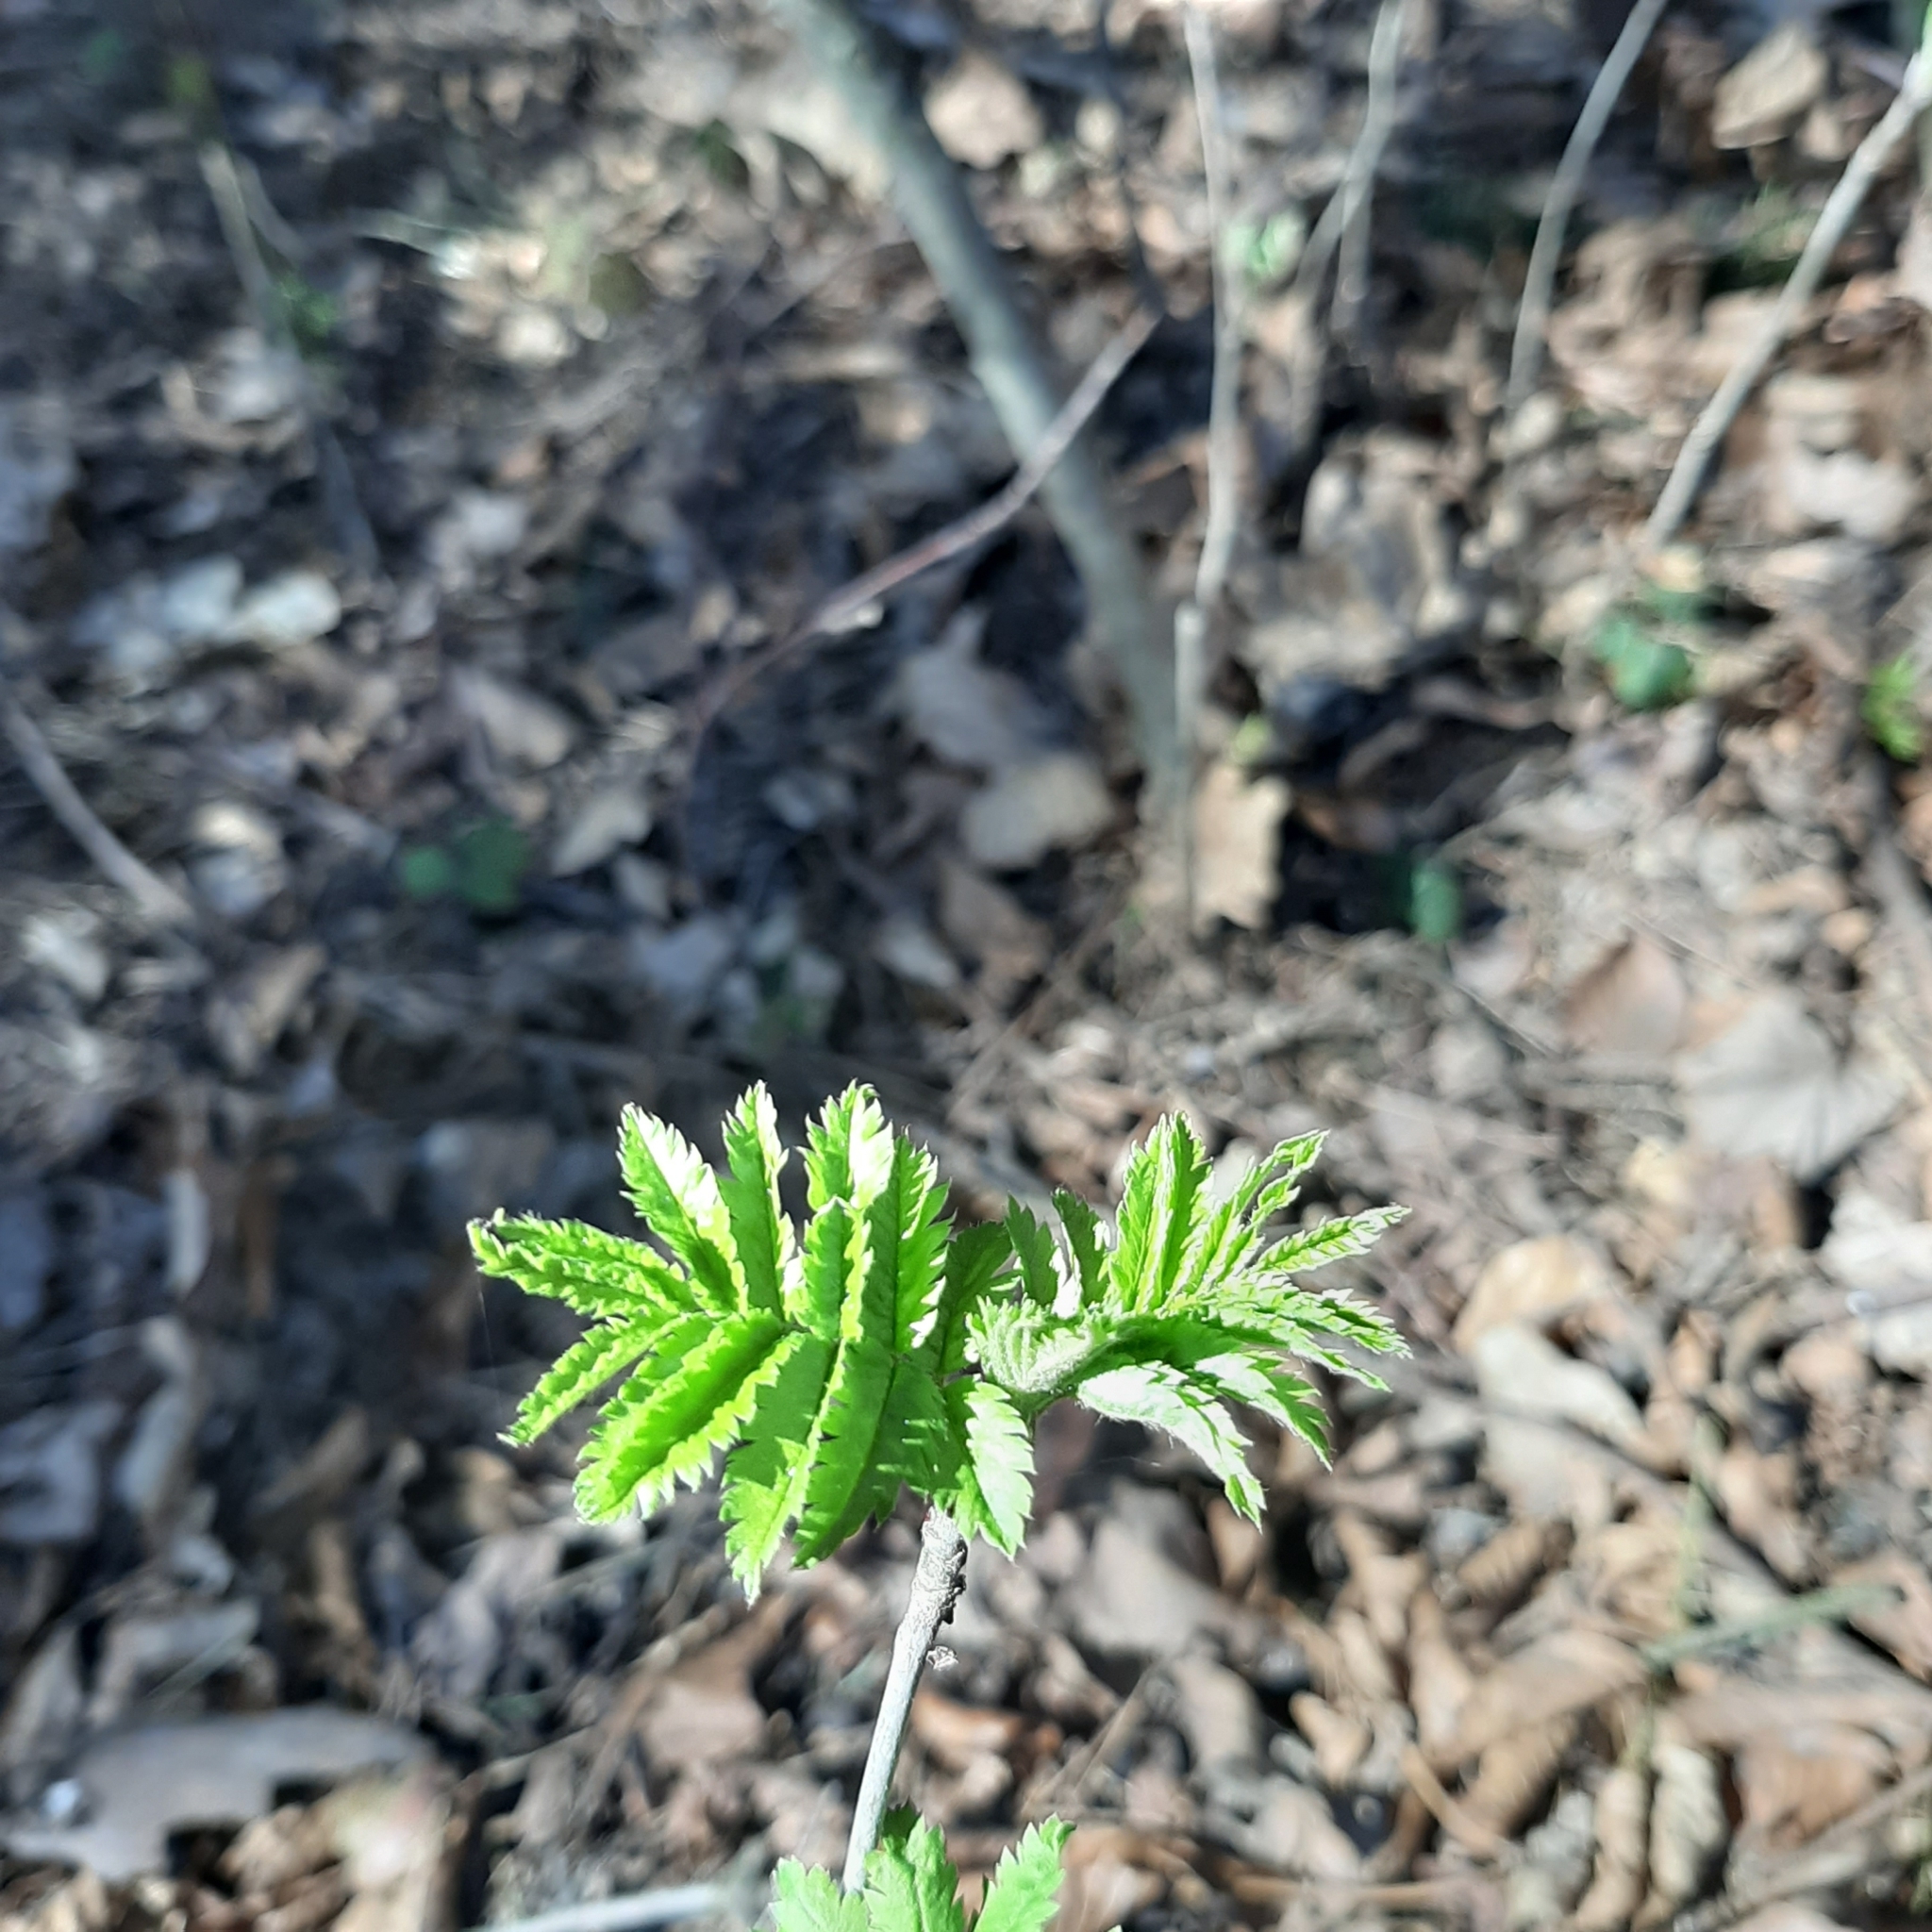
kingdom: Plantae
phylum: Tracheophyta
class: Magnoliopsida
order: Rosales
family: Rosaceae
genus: Sorbus
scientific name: Sorbus aucuparia
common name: Rowan
